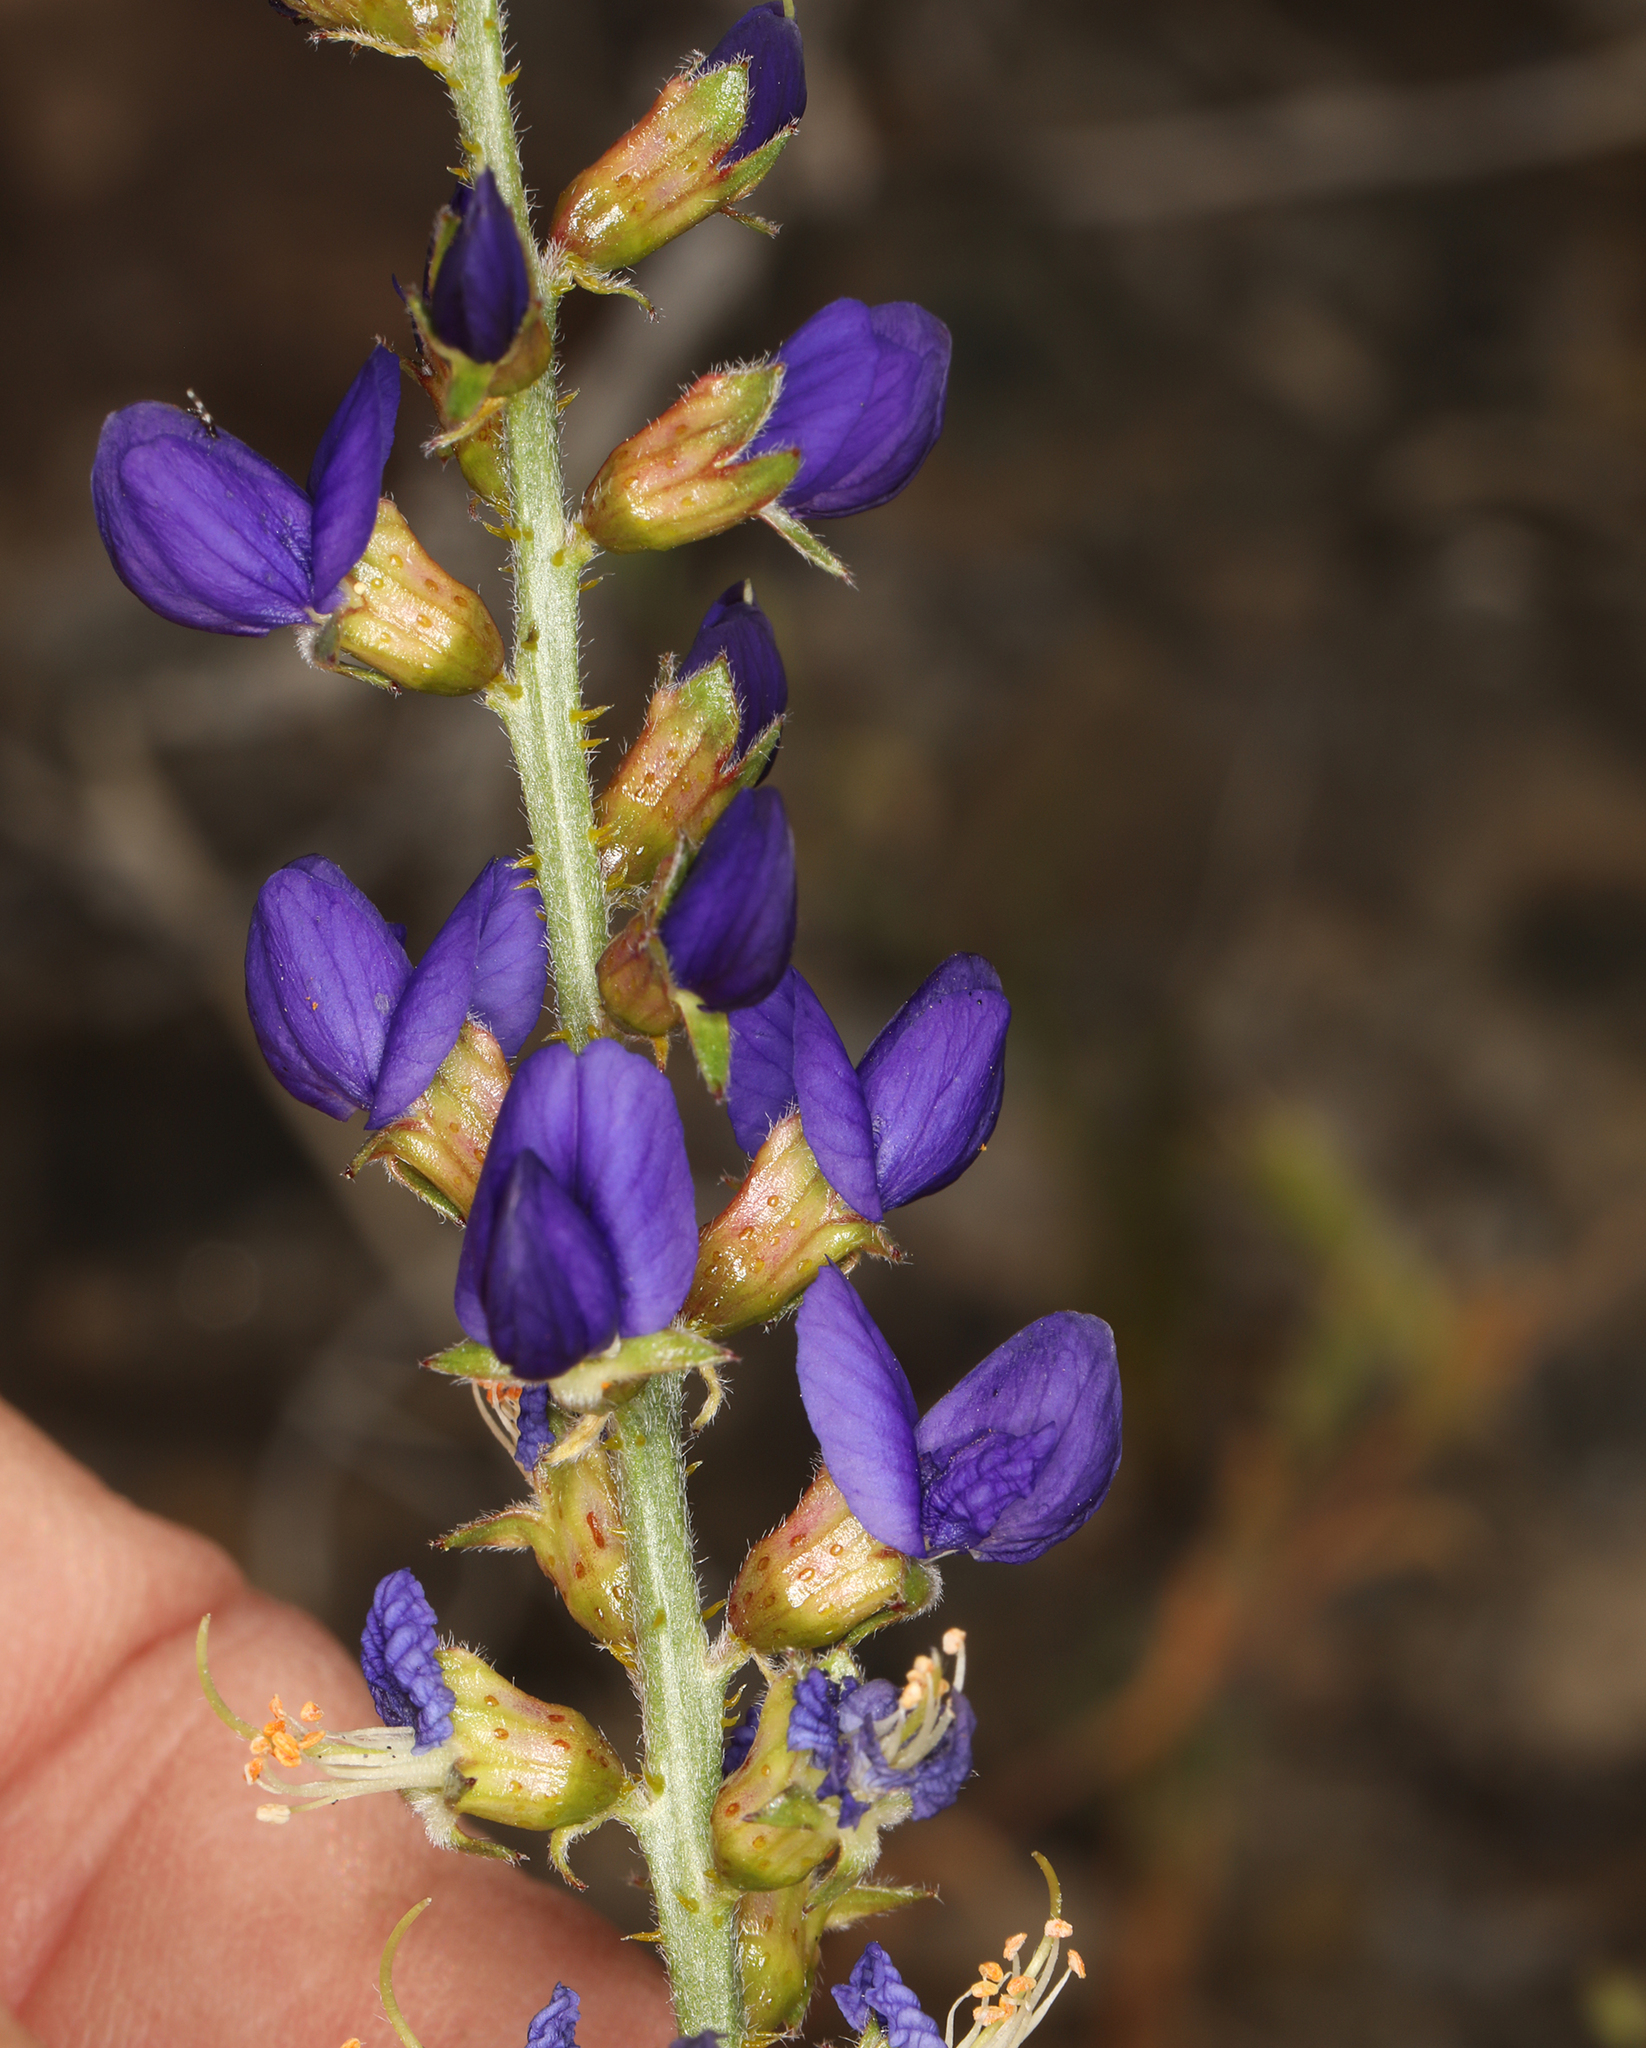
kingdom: Plantae
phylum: Tracheophyta
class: Magnoliopsida
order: Fabales
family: Fabaceae
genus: Psorothamnus
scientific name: Psorothamnus arborescens
